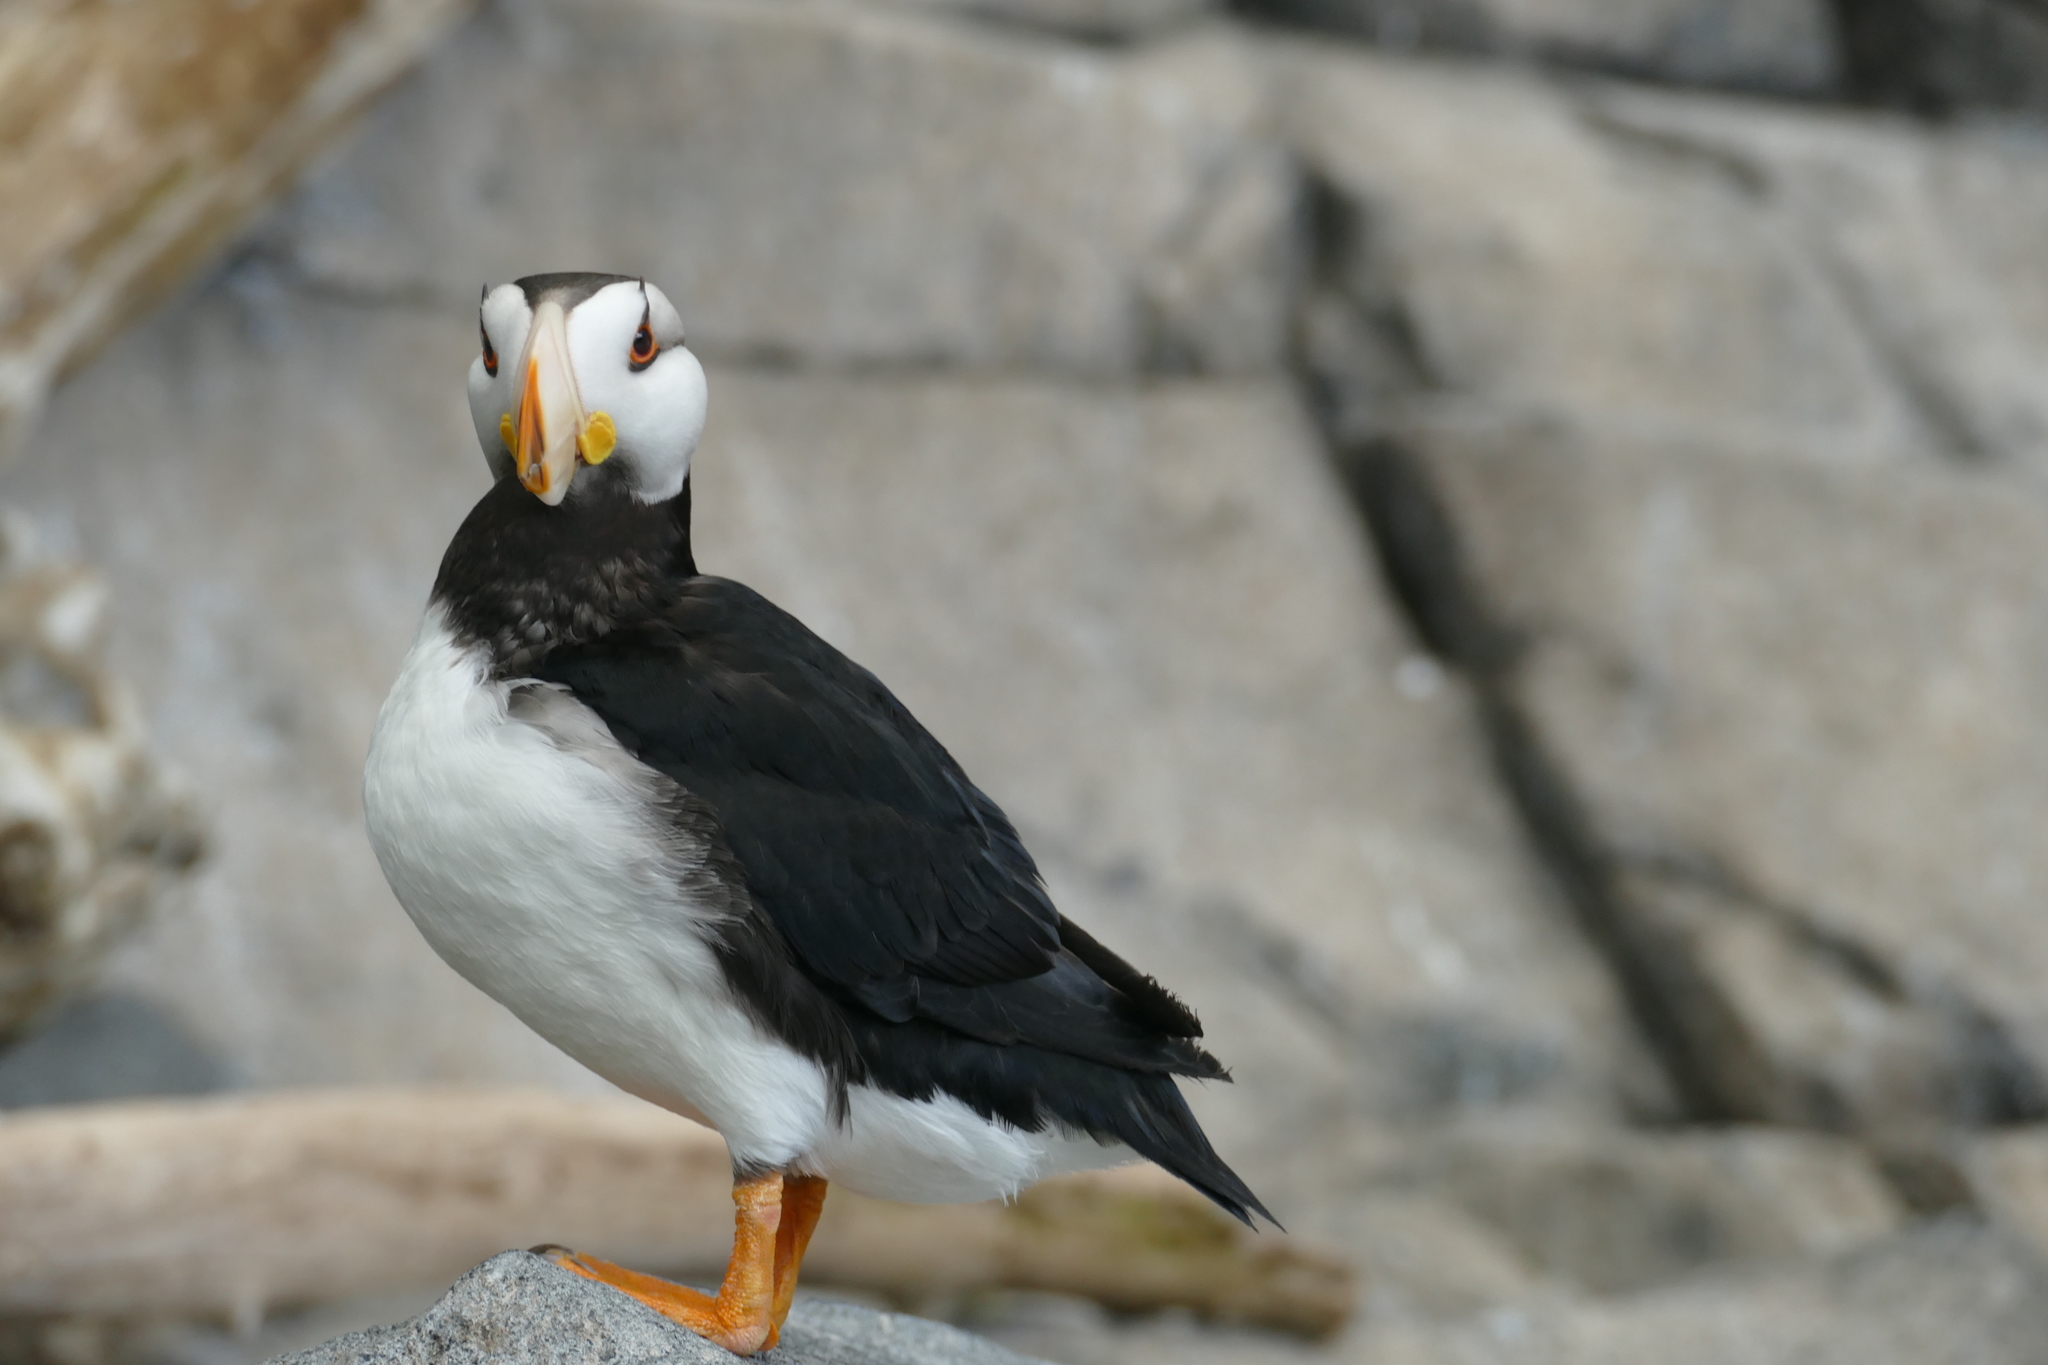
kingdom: Animalia
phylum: Chordata
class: Aves
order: Charadriiformes
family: Alcidae
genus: Fratercula
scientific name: Fratercula corniculata
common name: Horned puffin
